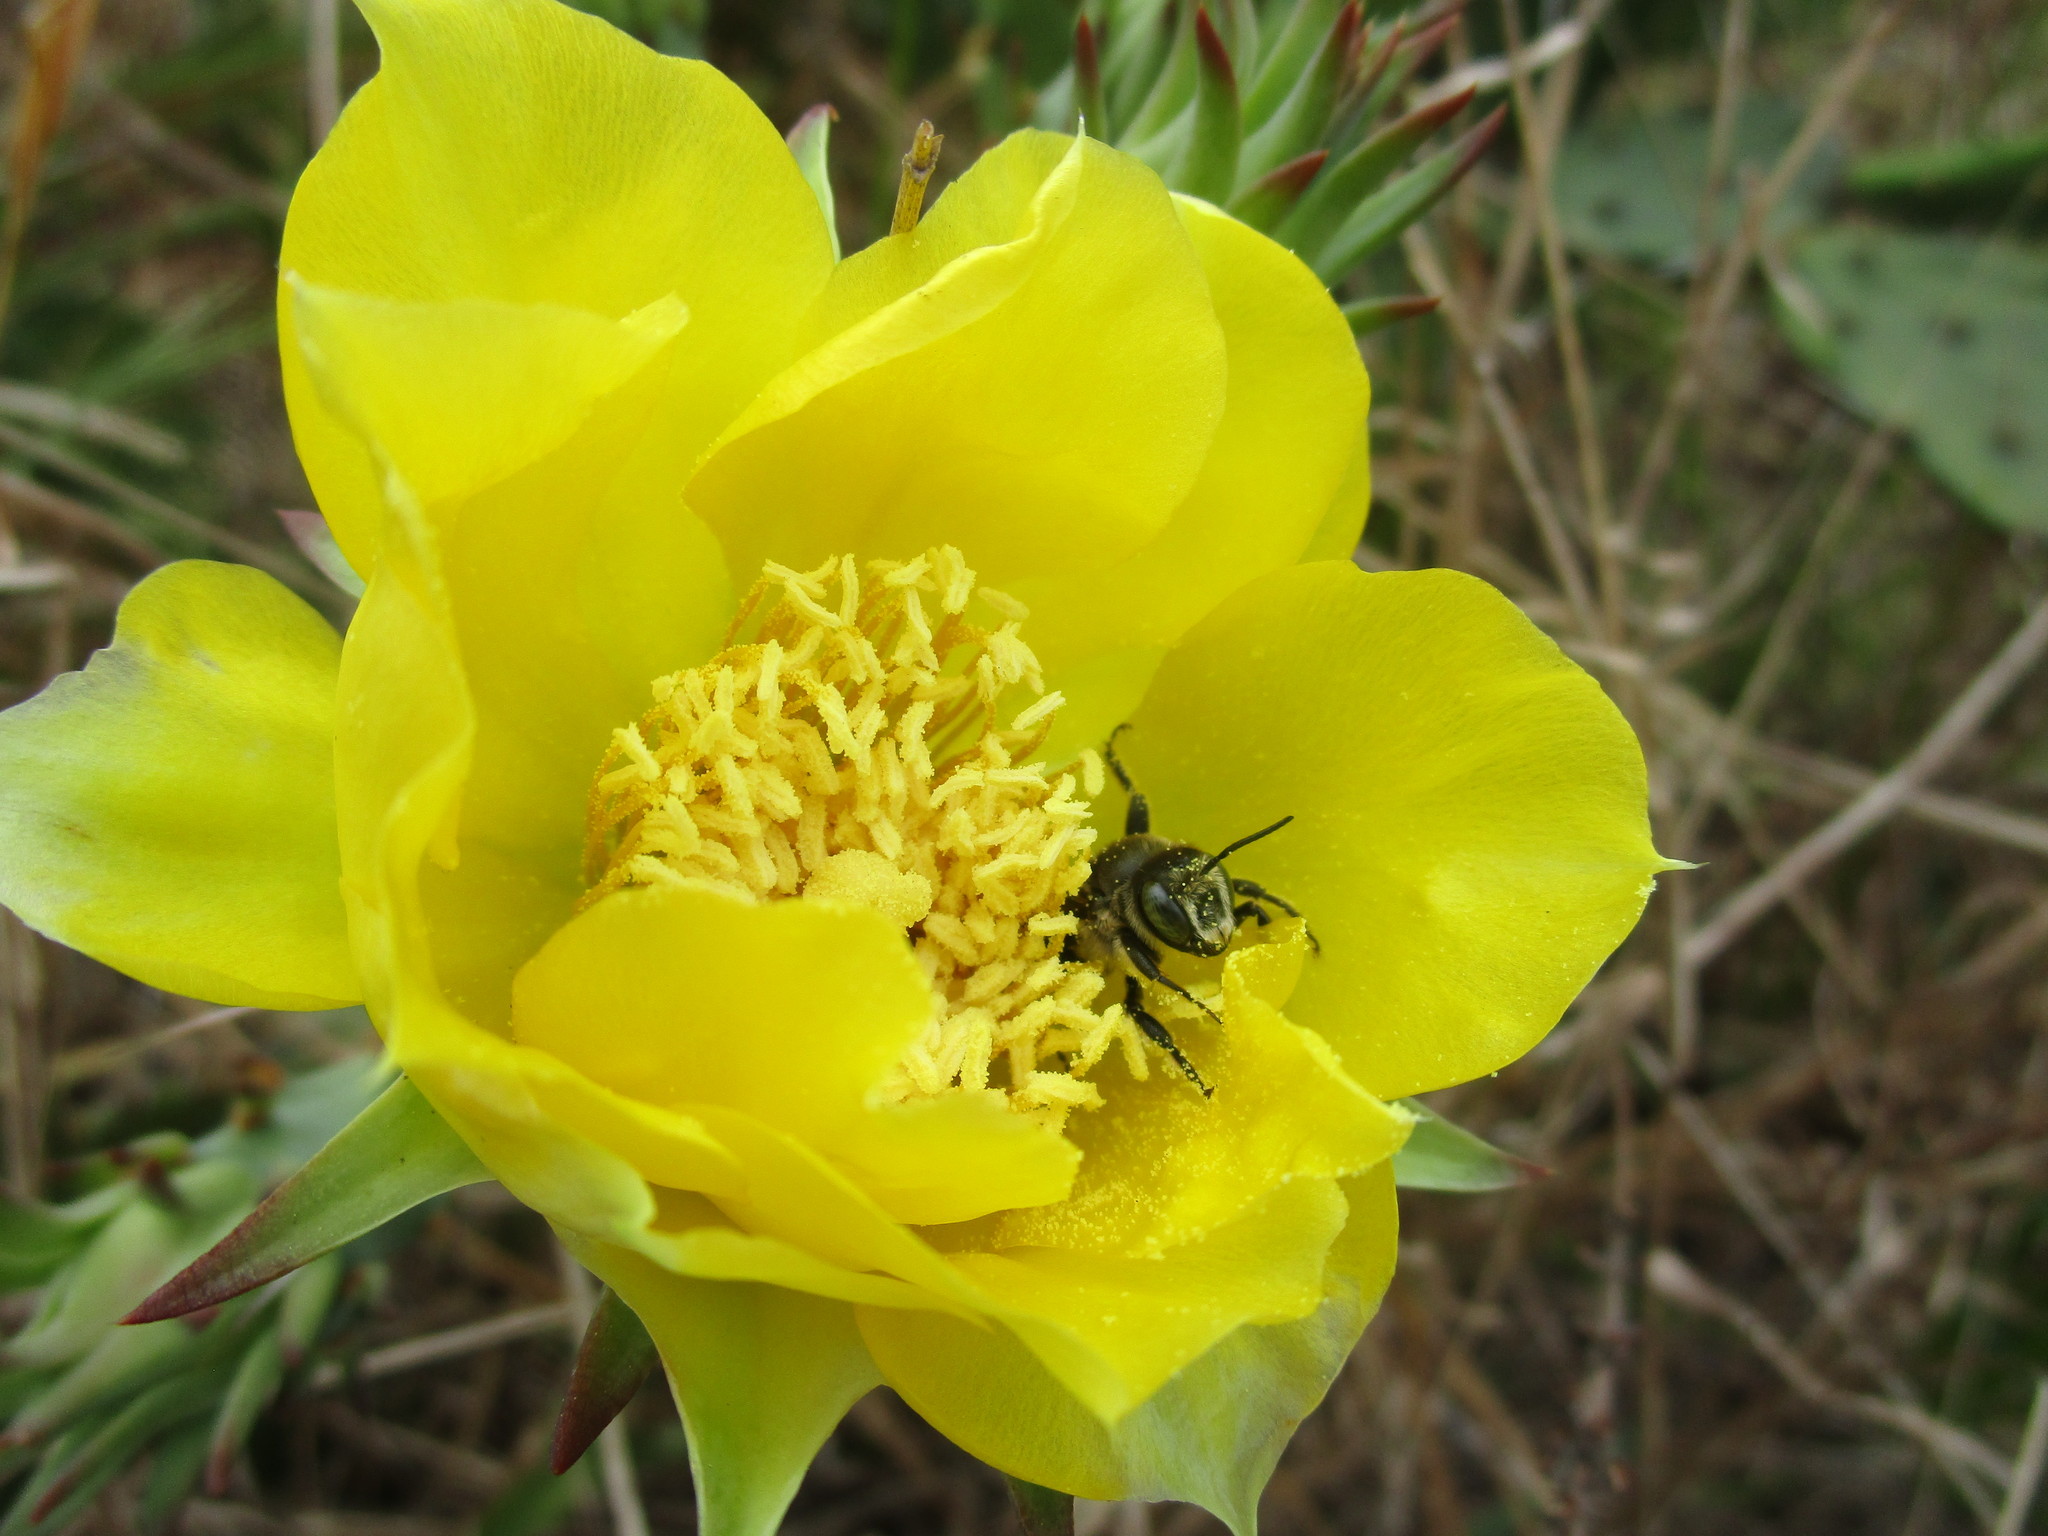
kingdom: Animalia
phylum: Arthropoda
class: Insecta
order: Hymenoptera
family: Megachilidae
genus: Lithurgopsis
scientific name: Lithurgopsis gibbosa
